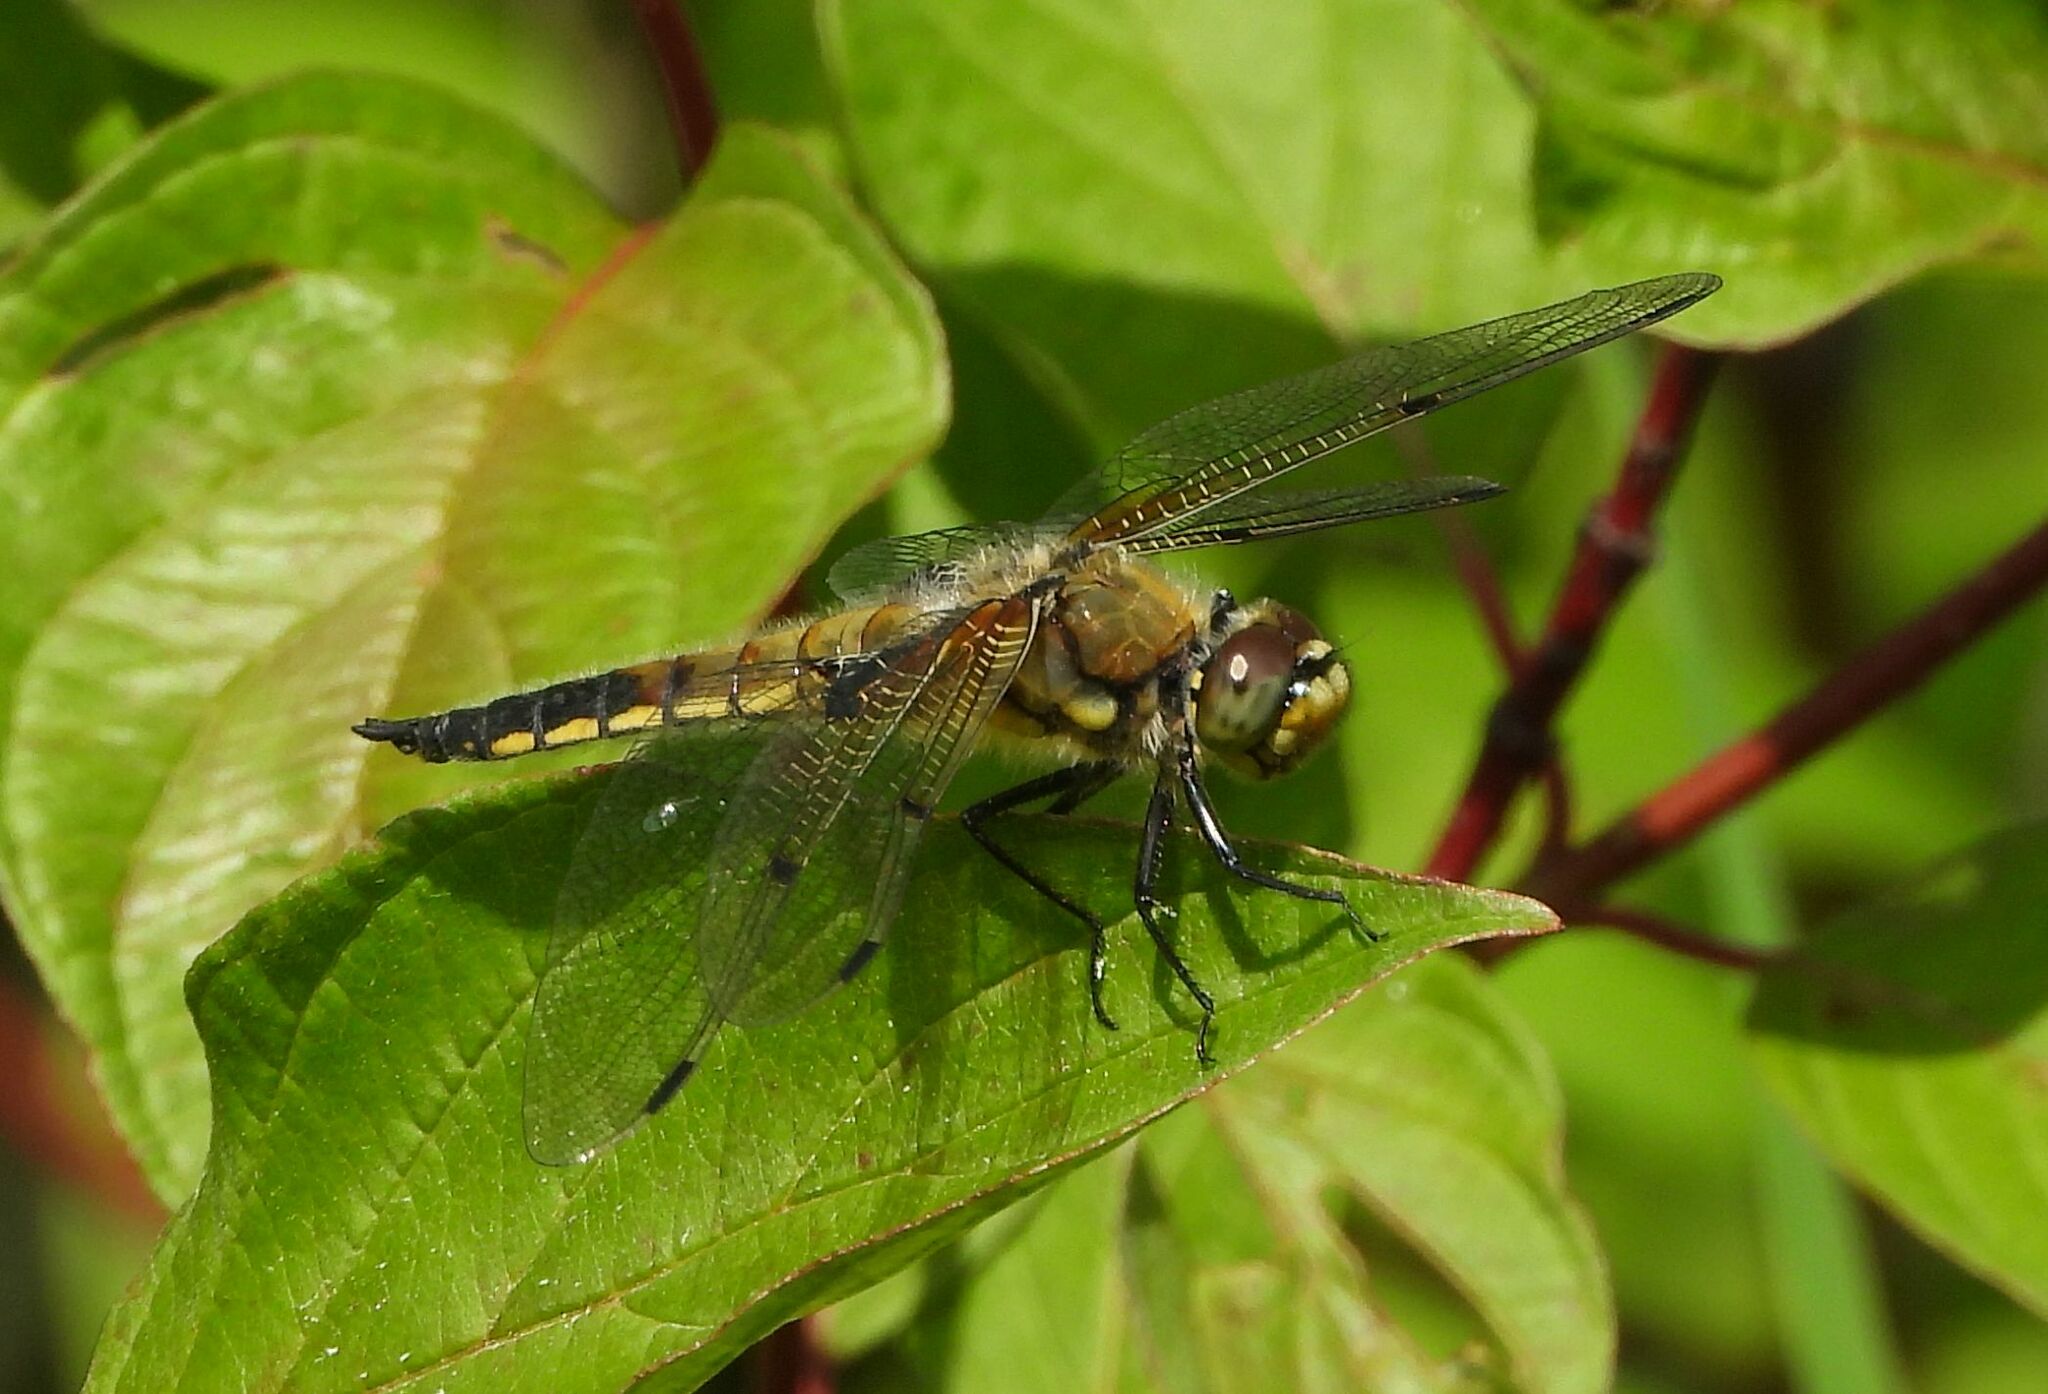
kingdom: Animalia
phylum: Arthropoda
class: Insecta
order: Odonata
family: Libellulidae
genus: Libellula
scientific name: Libellula quadrimaculata
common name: Four-spotted chaser
